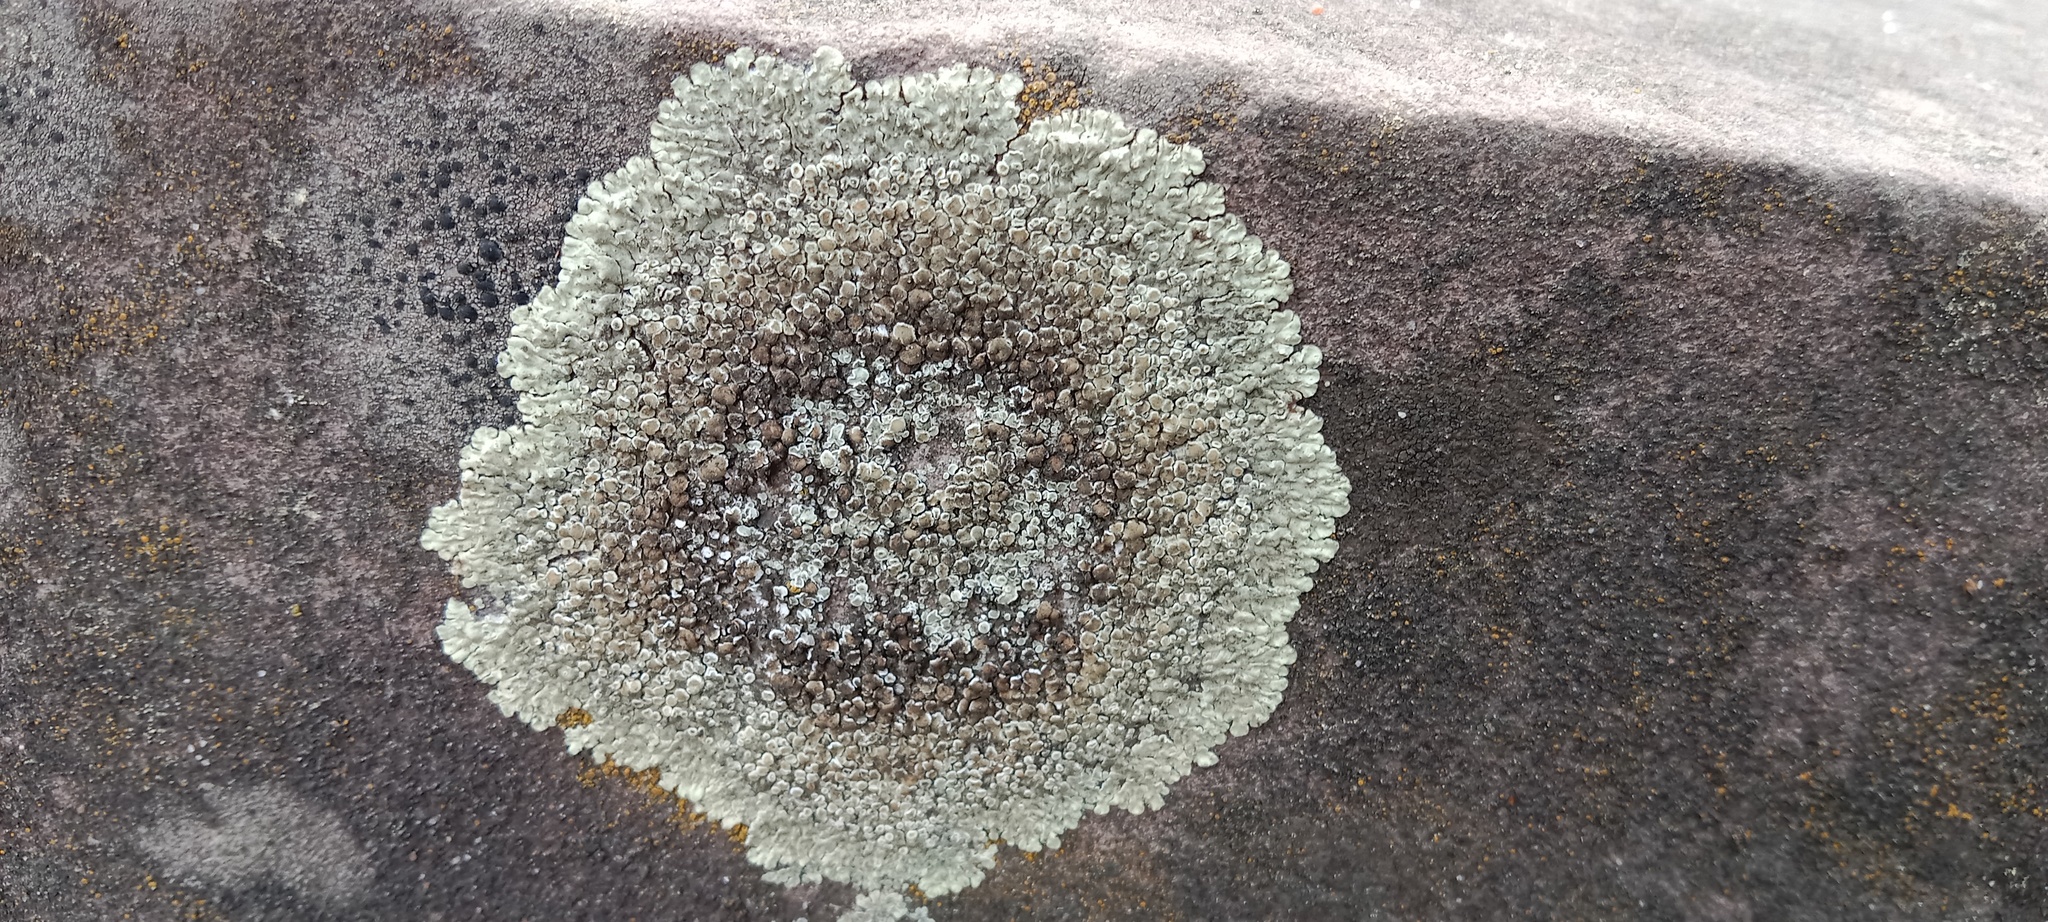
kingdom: Fungi
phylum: Ascomycota
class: Lecanoromycetes
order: Lecanorales
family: Lecanoraceae
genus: Protoparmeliopsis
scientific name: Protoparmeliopsis muralis
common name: Stonewall rim lichen
